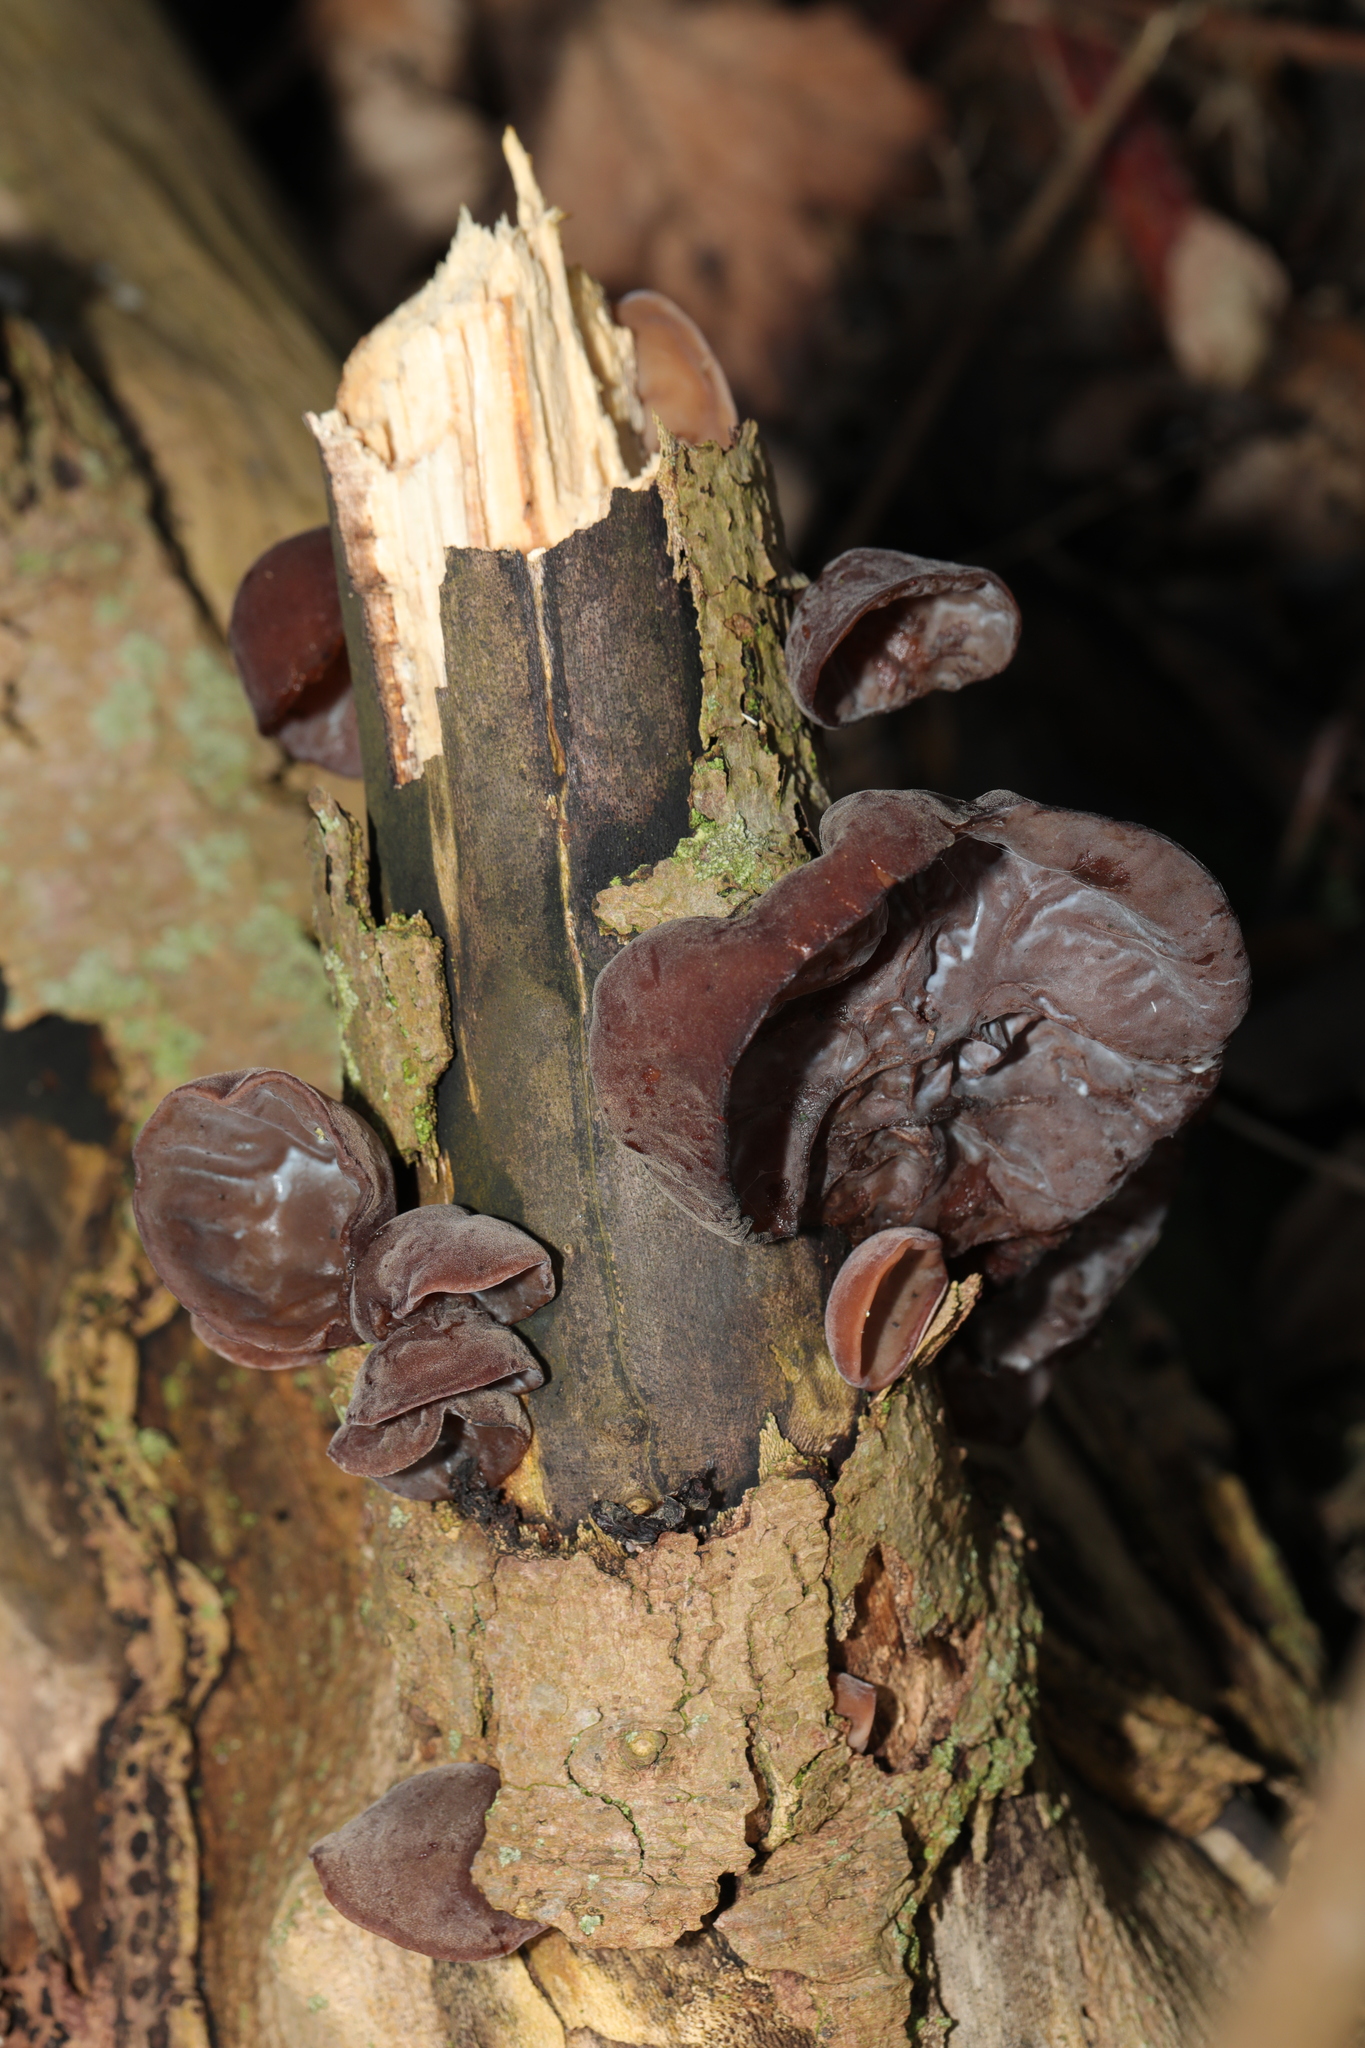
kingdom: Fungi
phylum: Basidiomycota
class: Agaricomycetes
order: Auriculariales
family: Auriculariaceae
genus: Auricularia
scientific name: Auricularia auricula-judae
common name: Jelly ear
